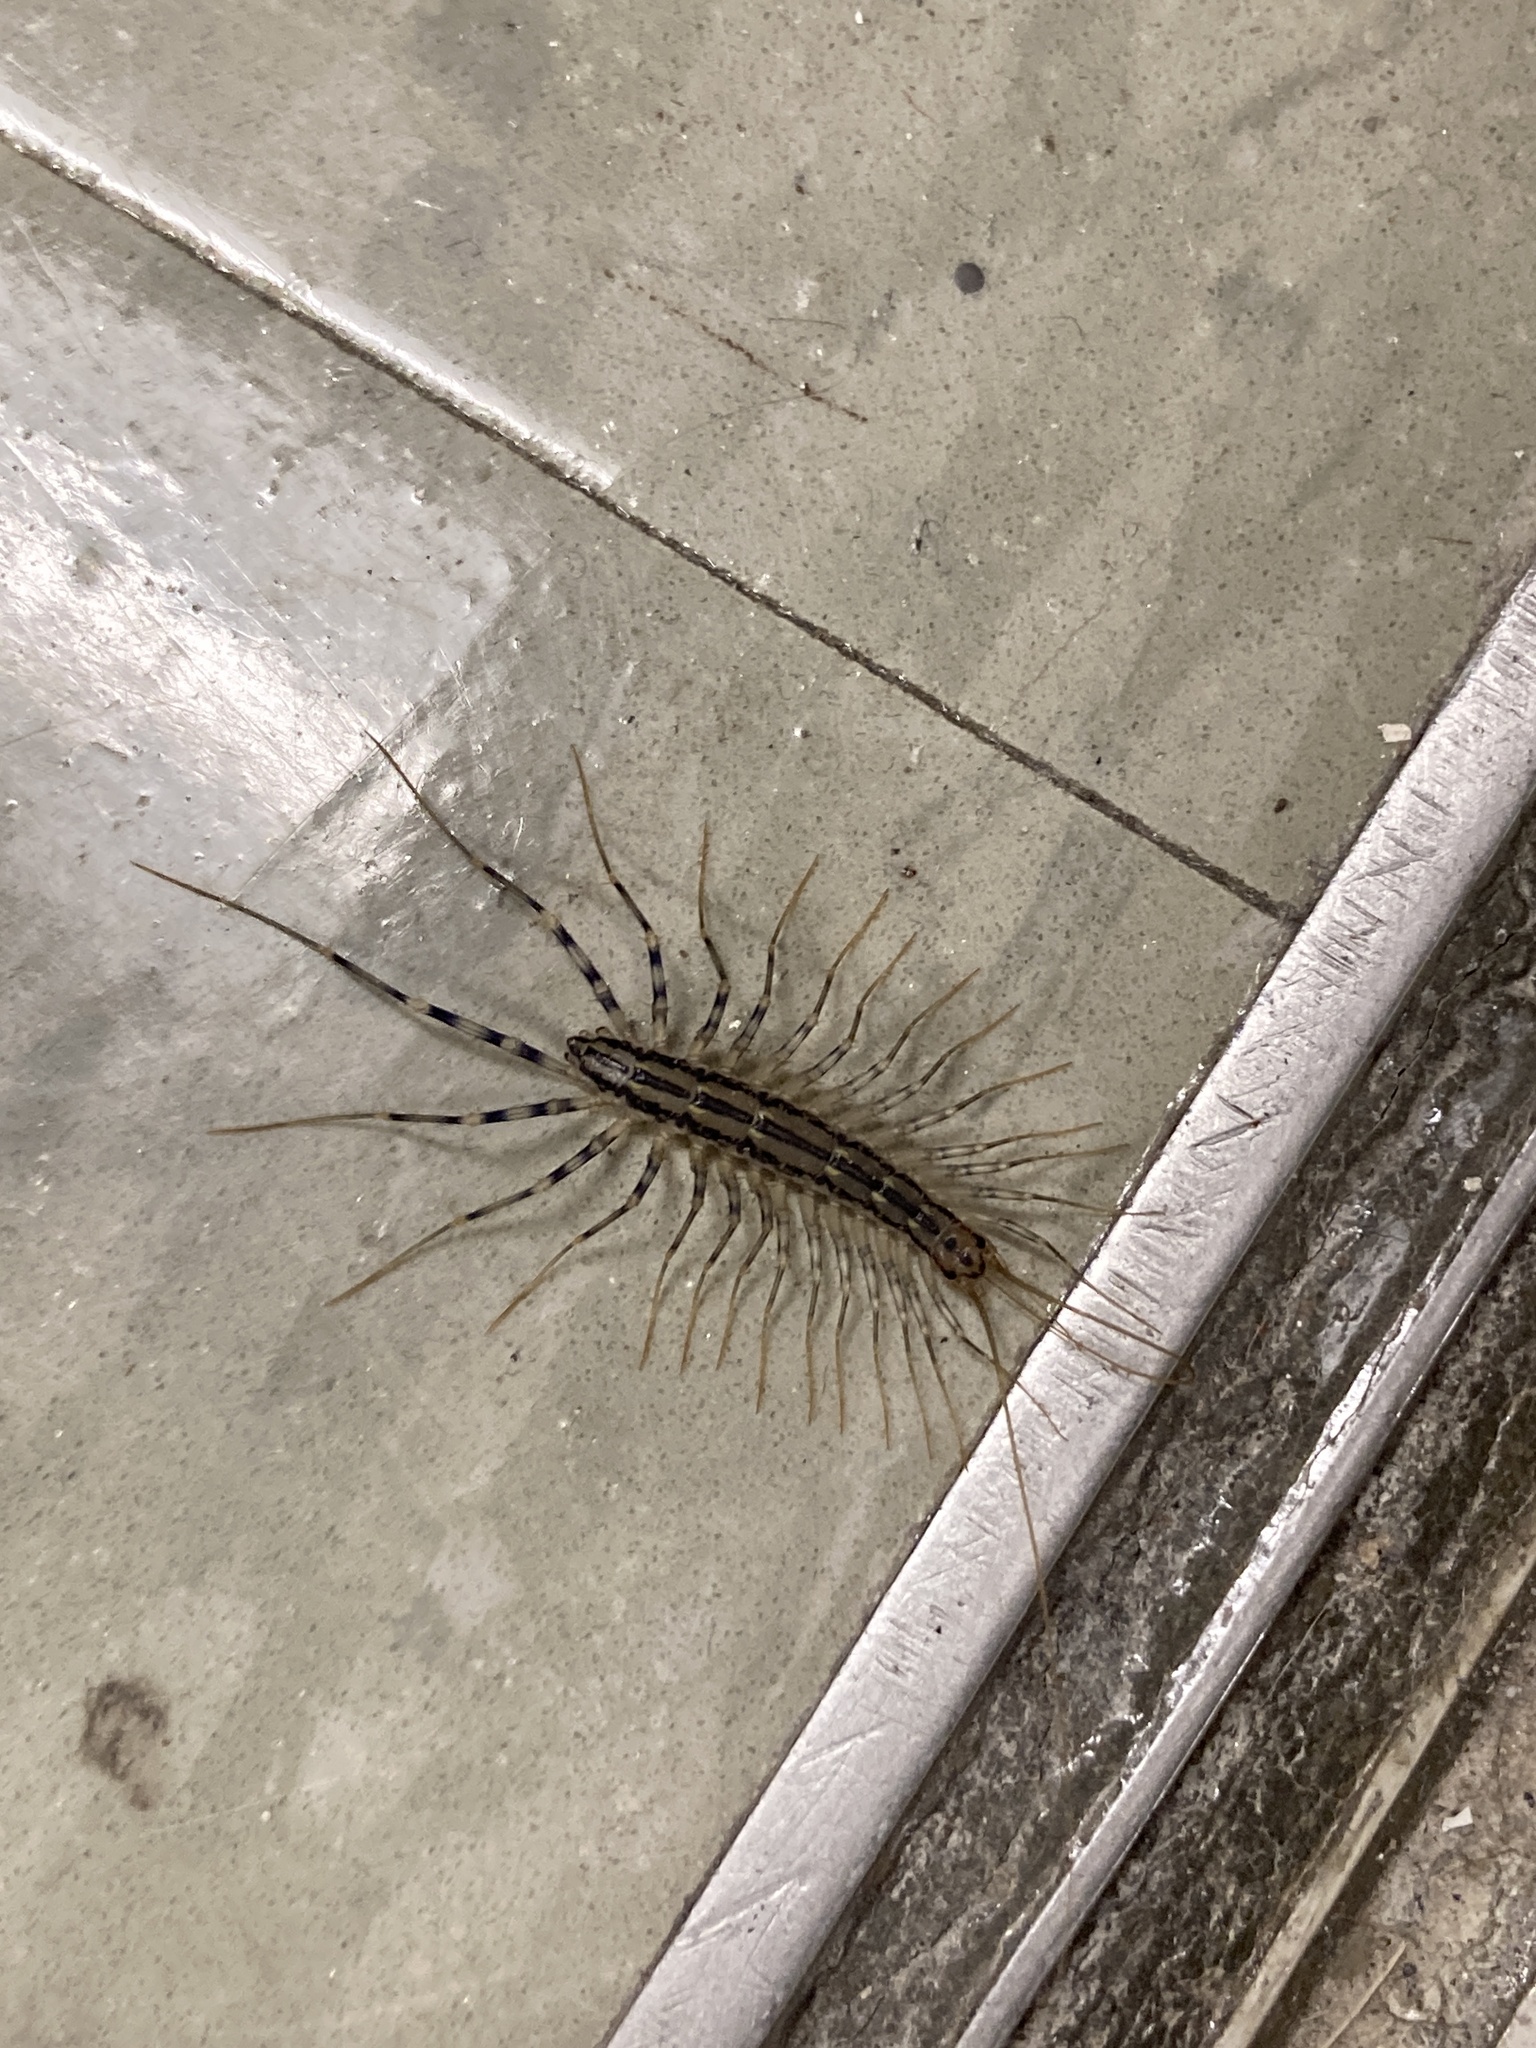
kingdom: Animalia
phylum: Arthropoda
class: Chilopoda
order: Scutigeromorpha
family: Scutigeridae
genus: Scutigera
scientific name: Scutigera coleoptrata
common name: House centipede
